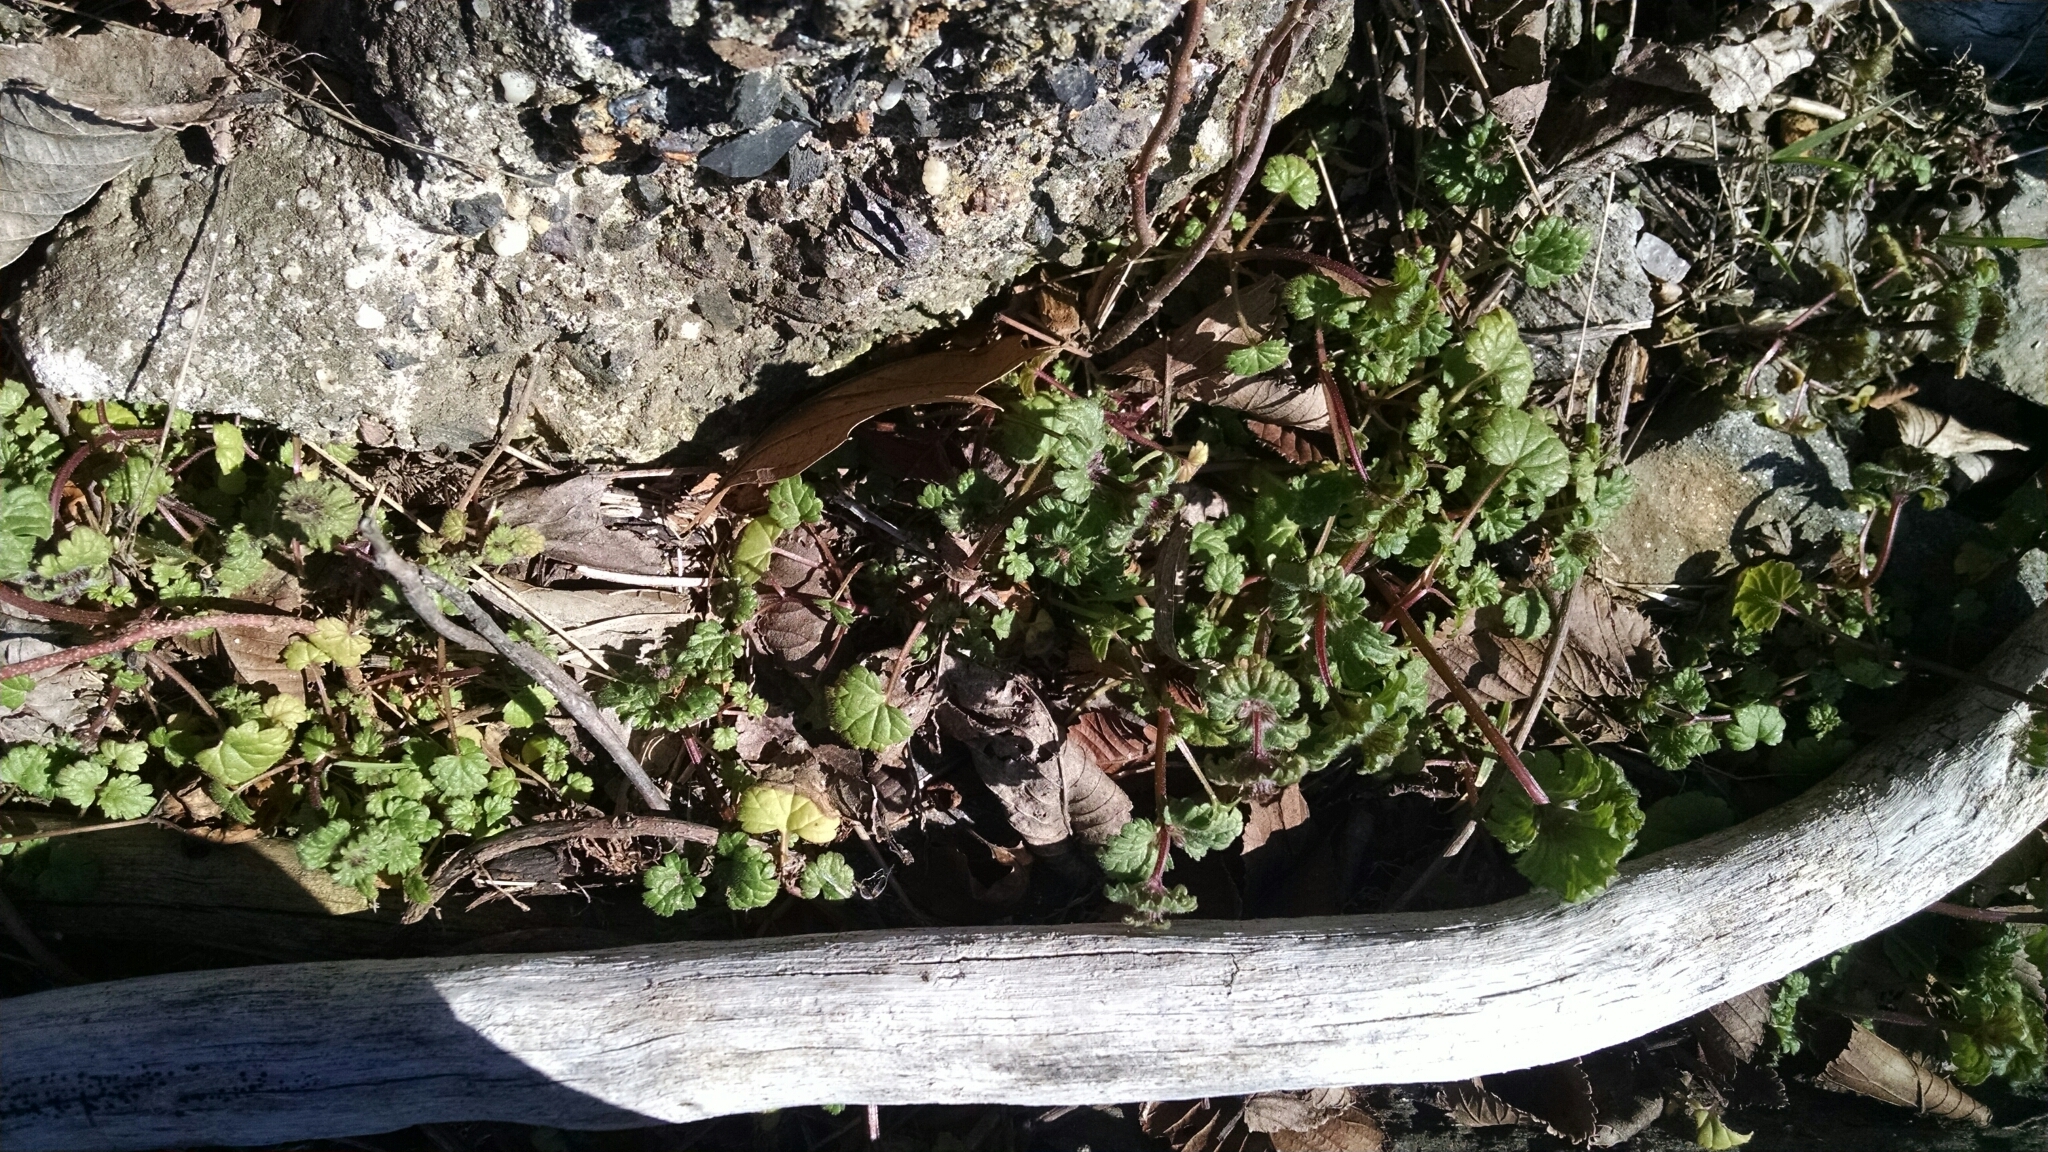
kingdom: Plantae
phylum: Tracheophyta
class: Magnoliopsida
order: Lamiales
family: Lamiaceae
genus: Lamium
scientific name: Lamium amplexicaule
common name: Henbit dead-nettle
